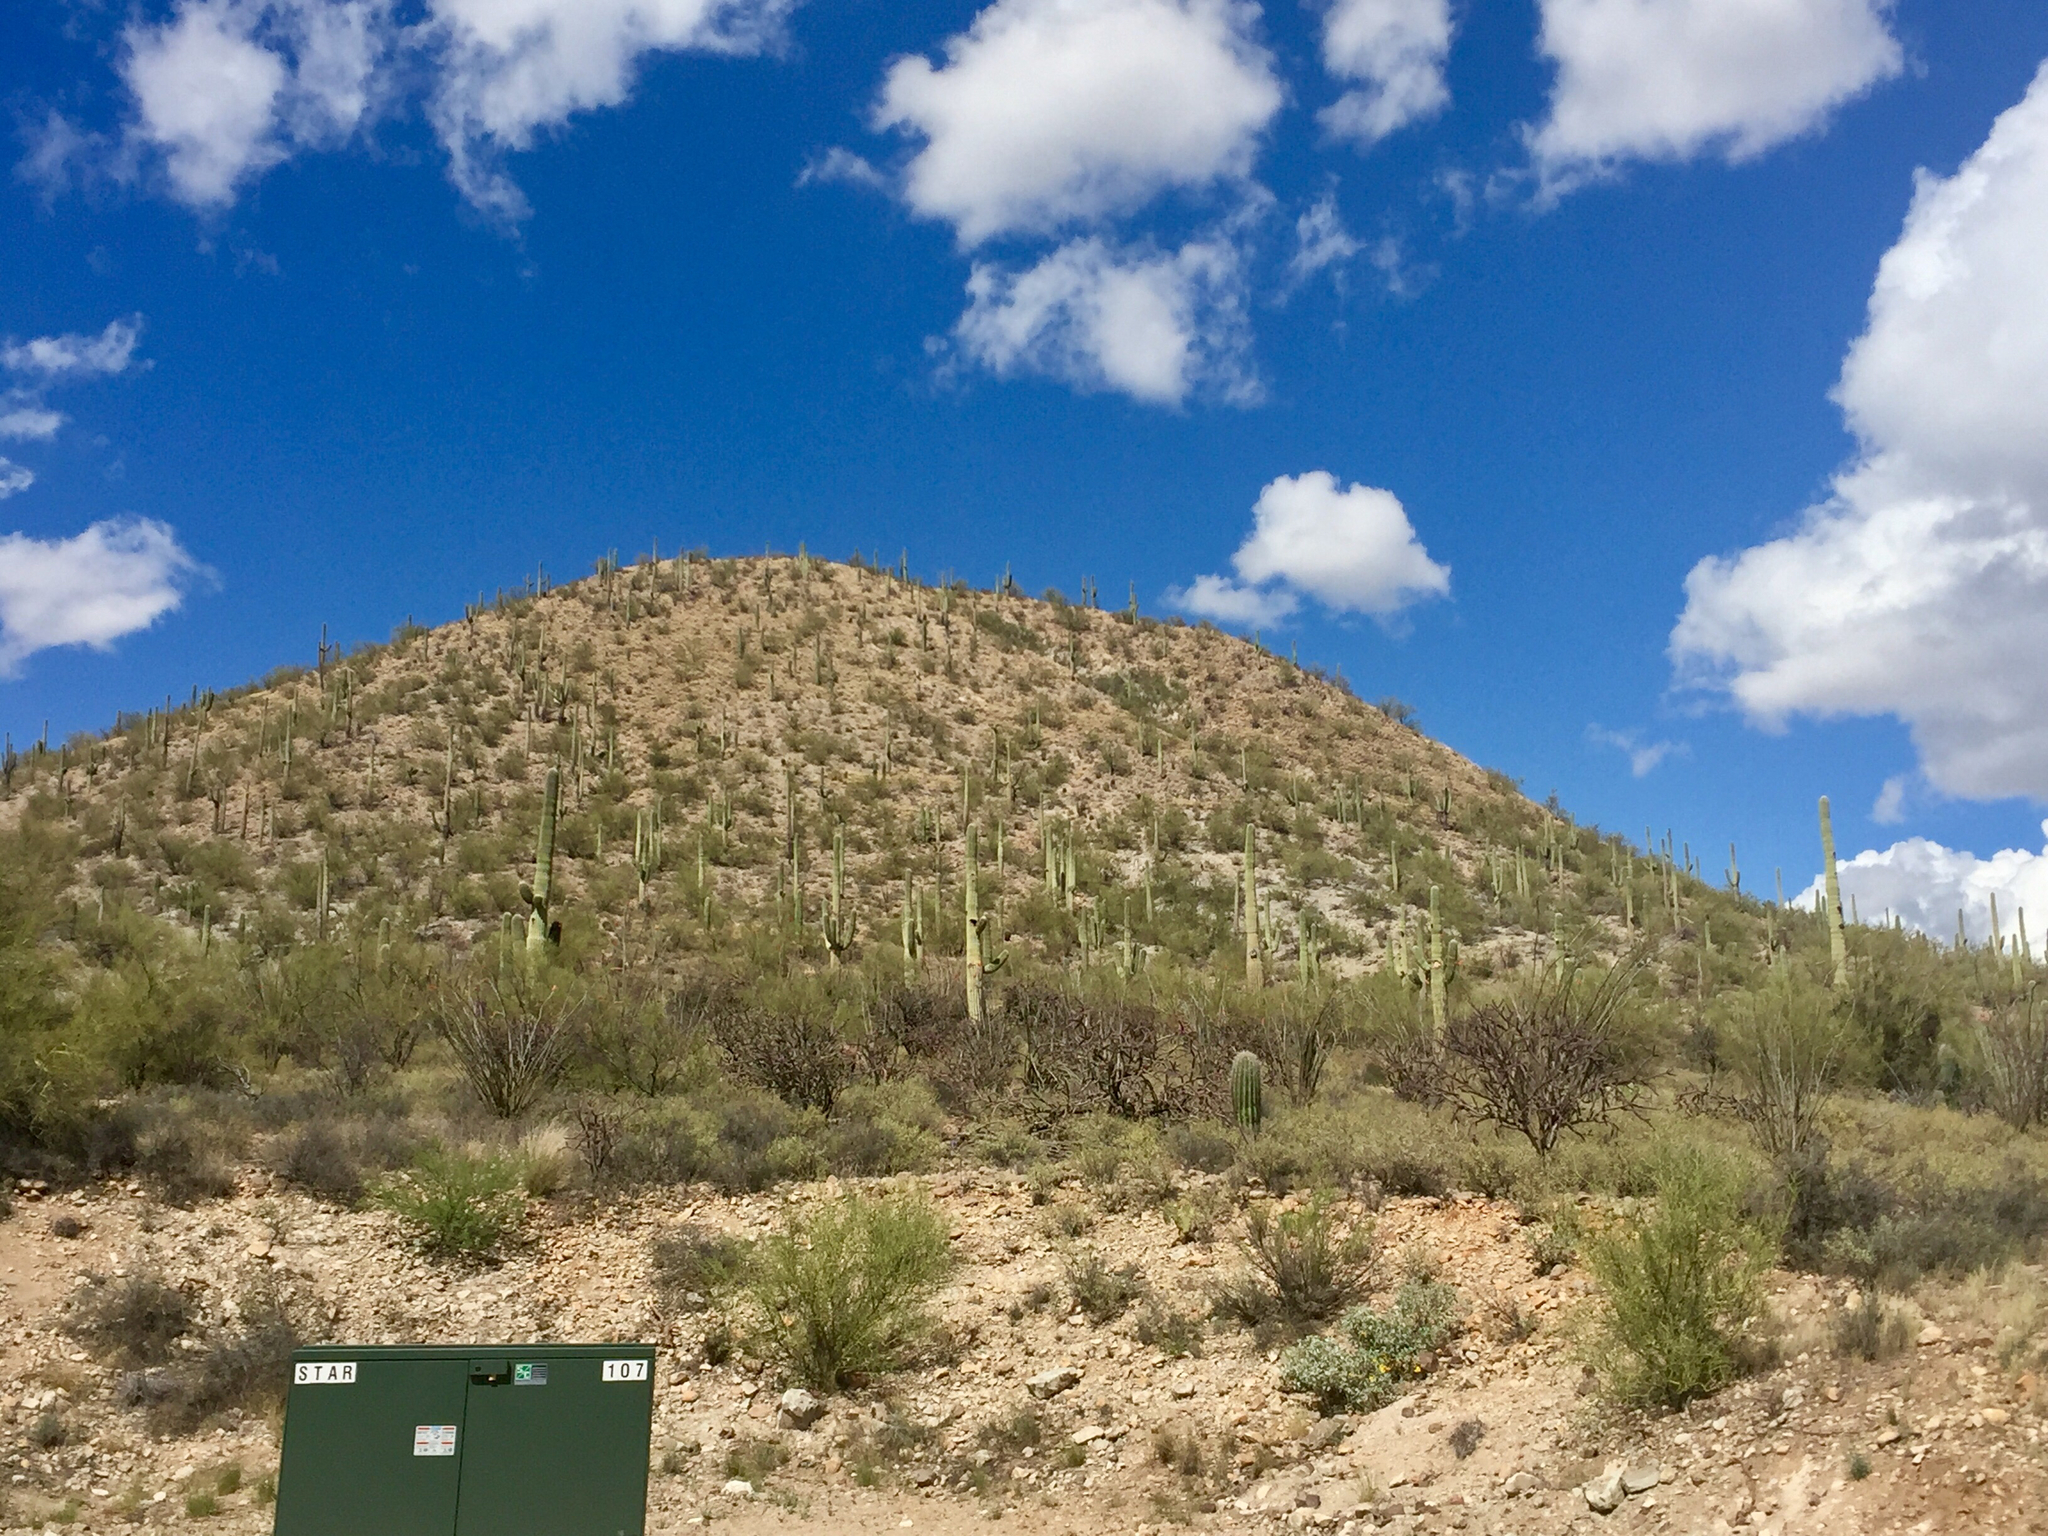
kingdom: Plantae
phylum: Tracheophyta
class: Magnoliopsida
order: Caryophyllales
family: Cactaceae
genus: Carnegiea
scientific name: Carnegiea gigantea
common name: Saguaro
